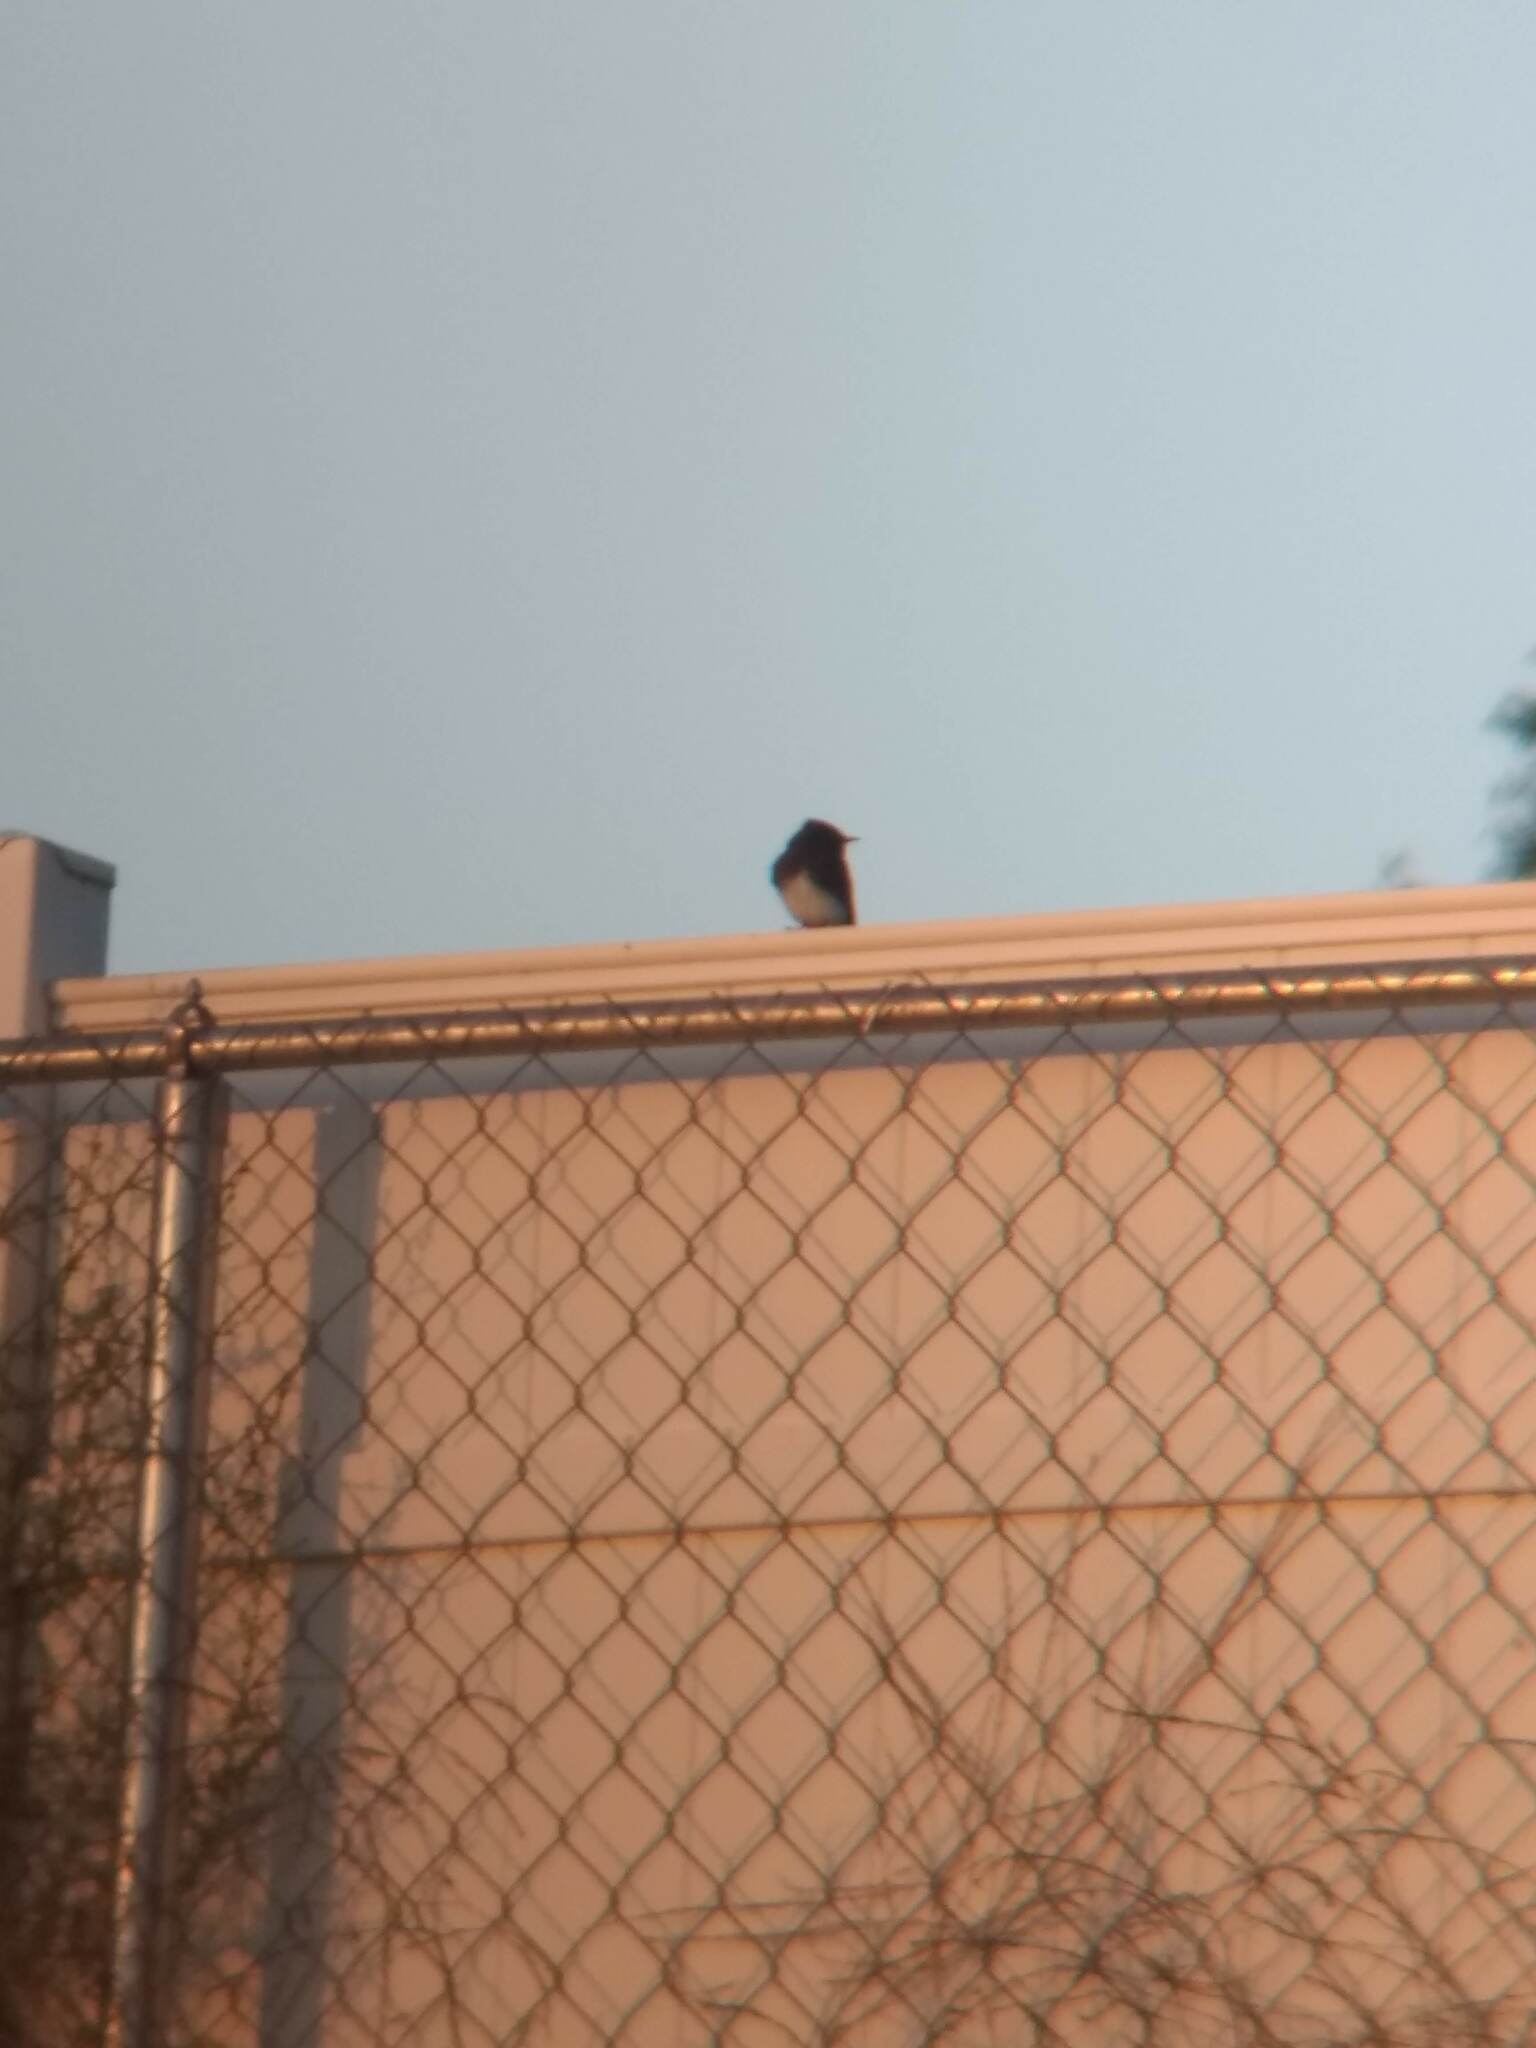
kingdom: Animalia
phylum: Chordata
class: Aves
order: Passeriformes
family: Tyrannidae
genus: Sayornis
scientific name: Sayornis nigricans
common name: Black phoebe
